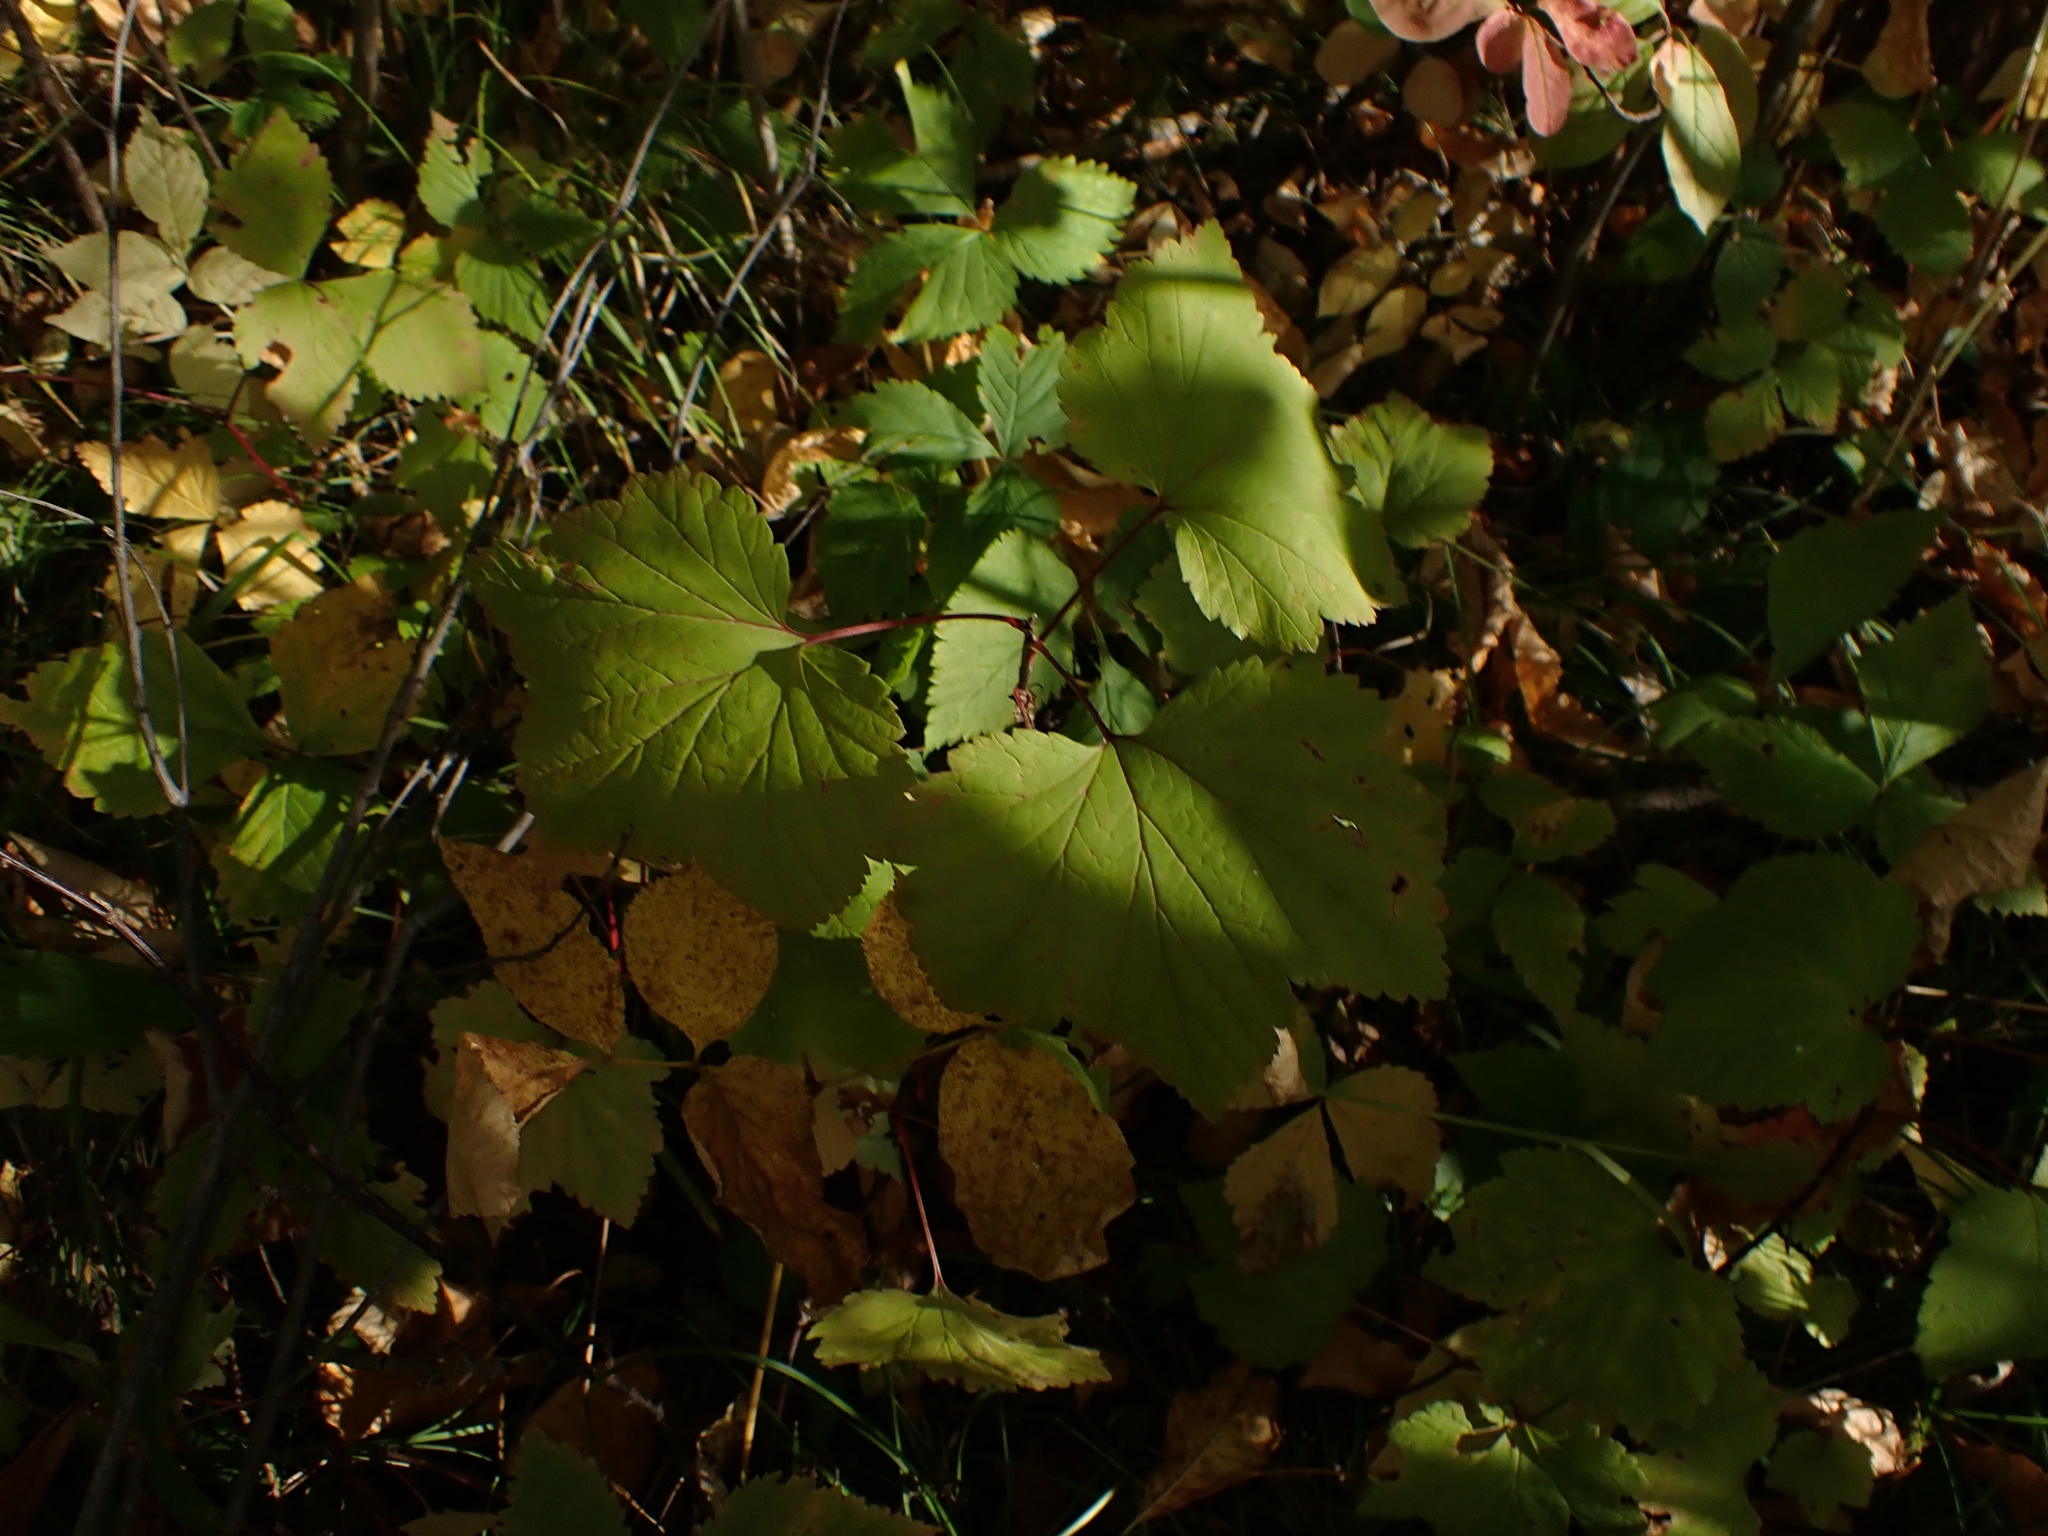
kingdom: Plantae
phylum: Tracheophyta
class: Magnoliopsida
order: Saxifragales
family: Grossulariaceae
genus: Ribes
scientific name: Ribes triste
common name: Swamp red currant
